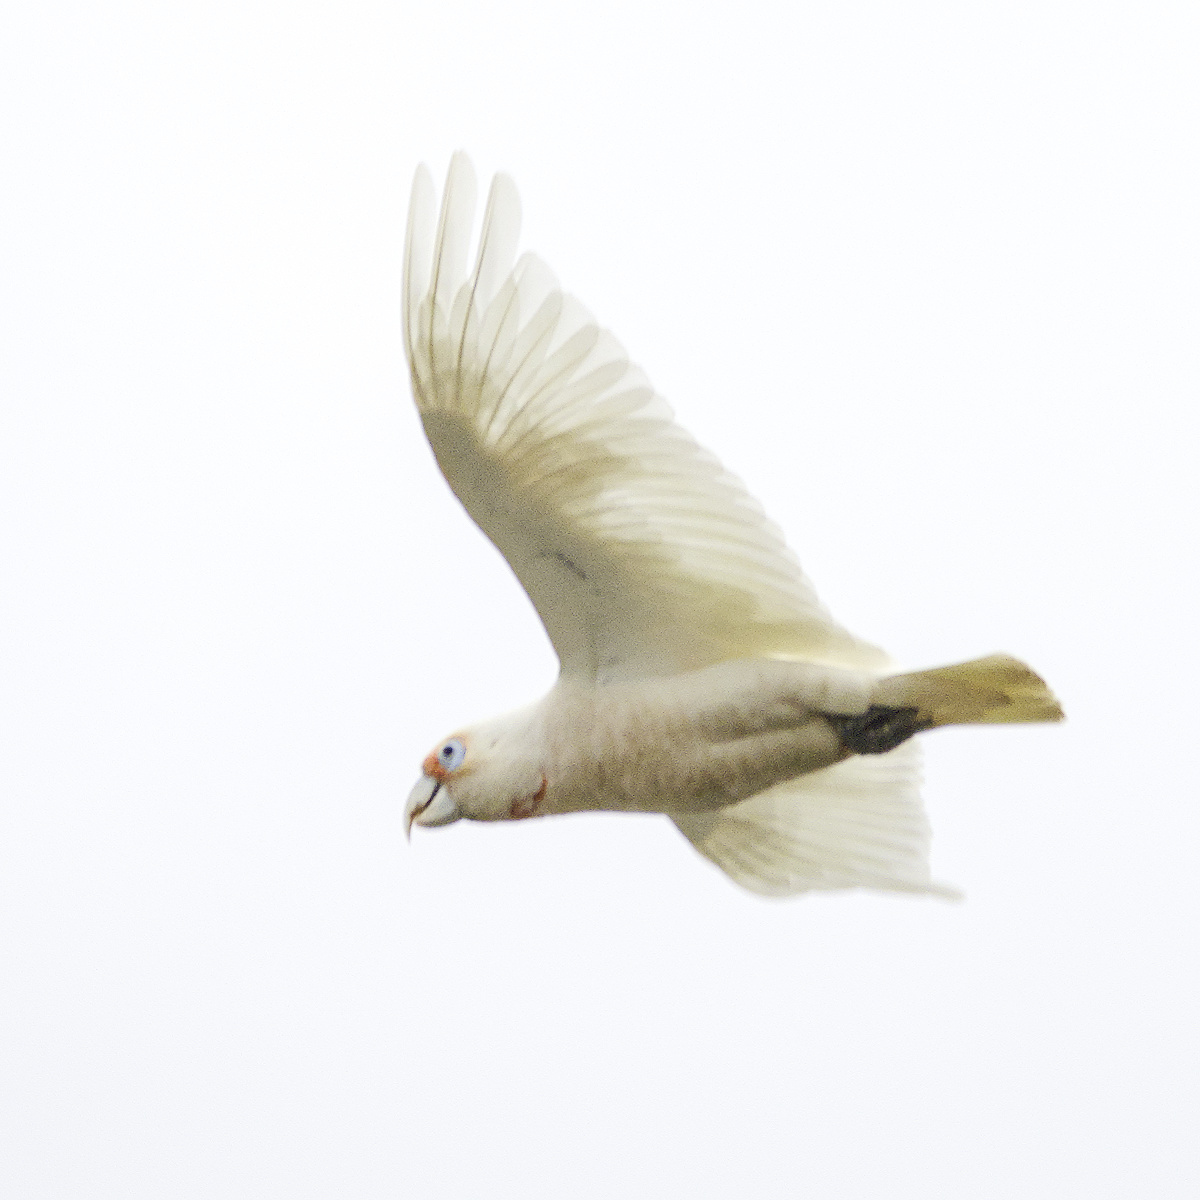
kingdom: Animalia
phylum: Chordata
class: Aves
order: Psittaciformes
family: Psittacidae
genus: Cacatua
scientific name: Cacatua tenuirostris
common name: Long-billed corella
